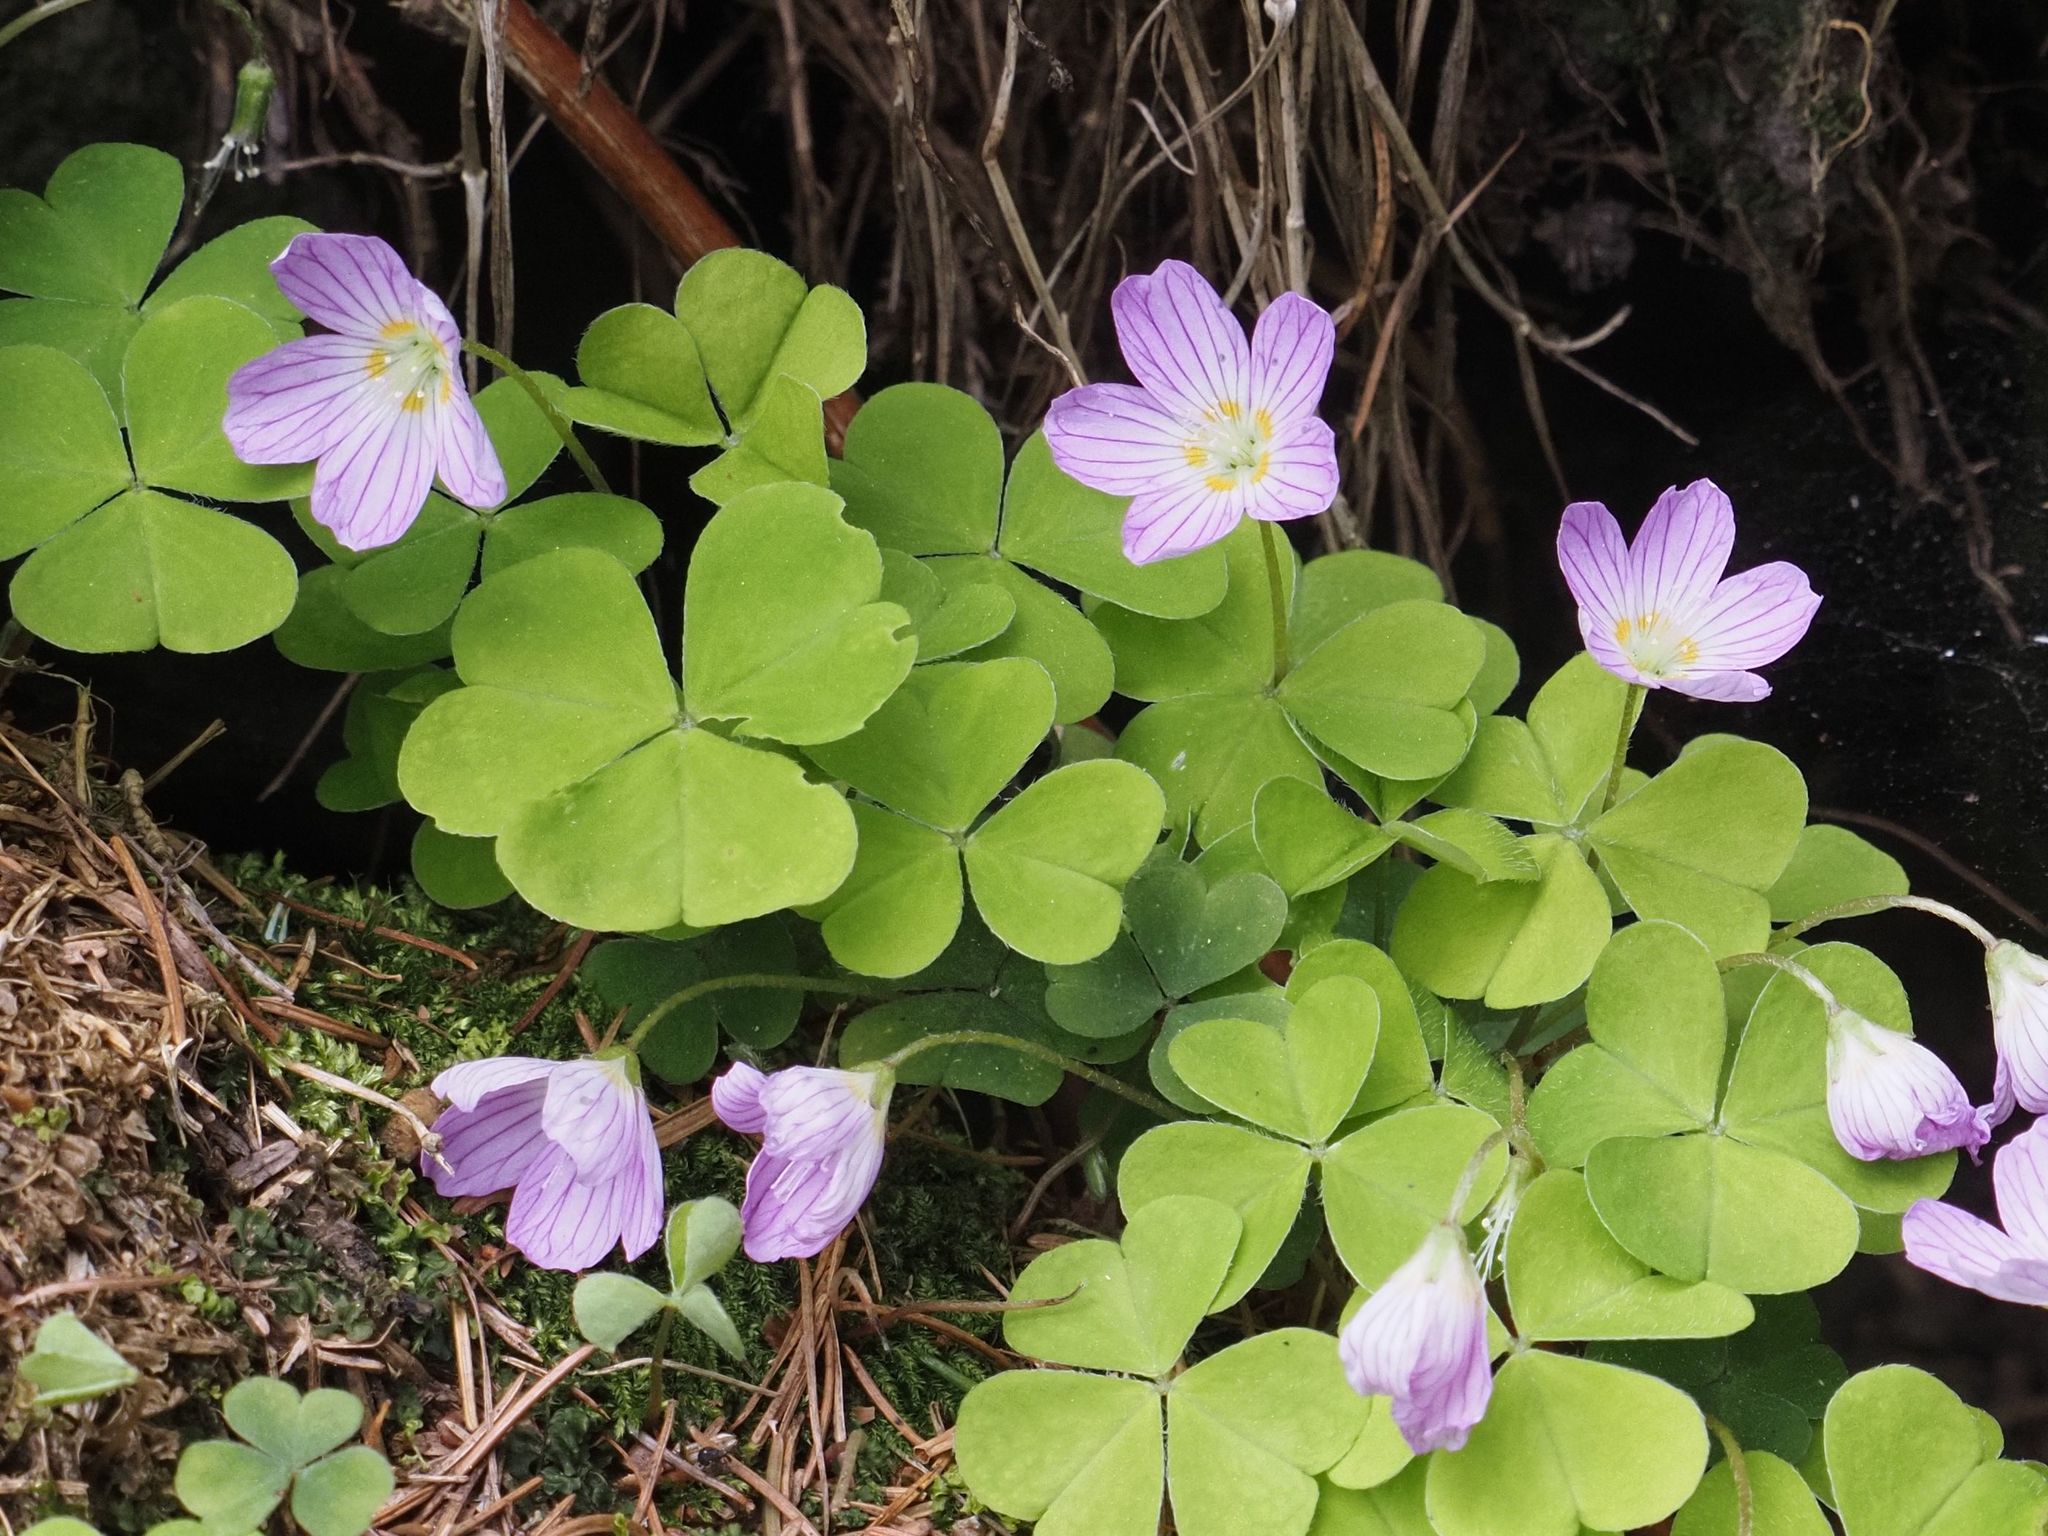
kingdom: Plantae
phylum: Tracheophyta
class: Magnoliopsida
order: Oxalidales
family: Oxalidaceae
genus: Oxalis
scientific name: Oxalis acetosella
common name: Wood-sorrel
